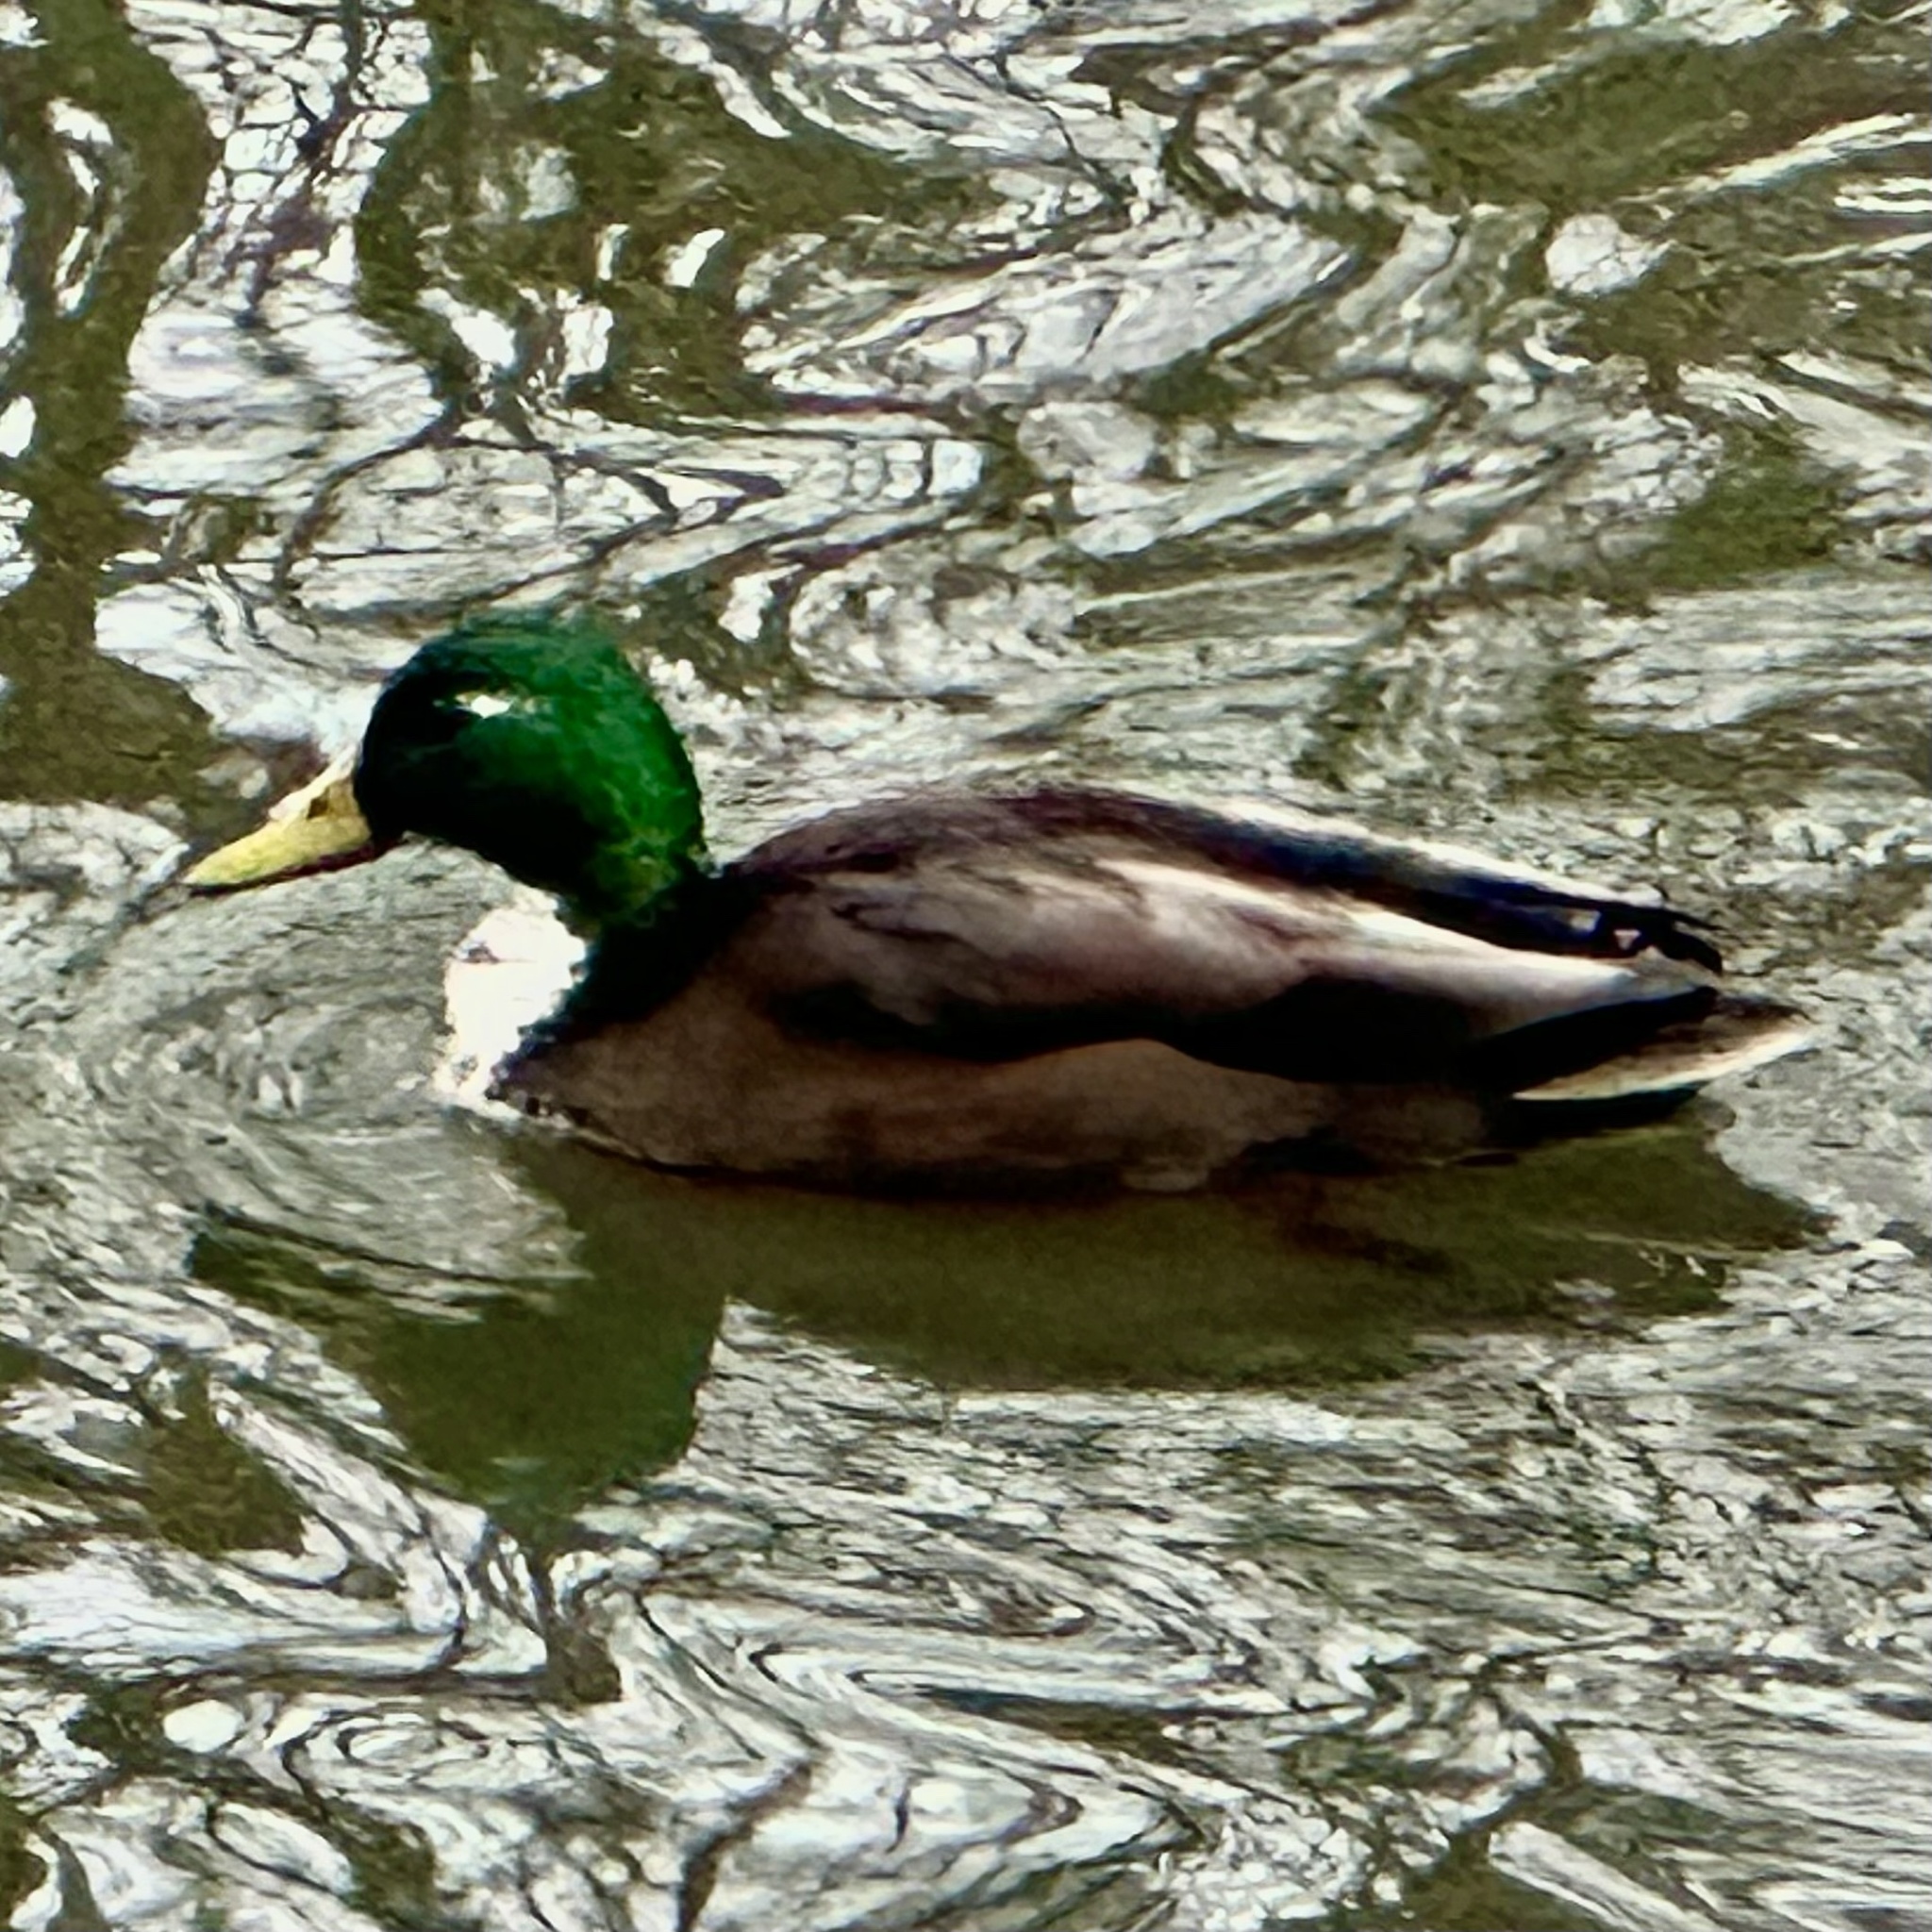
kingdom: Animalia
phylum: Chordata
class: Aves
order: Anseriformes
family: Anatidae
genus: Anas
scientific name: Anas platyrhynchos
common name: Mallard
